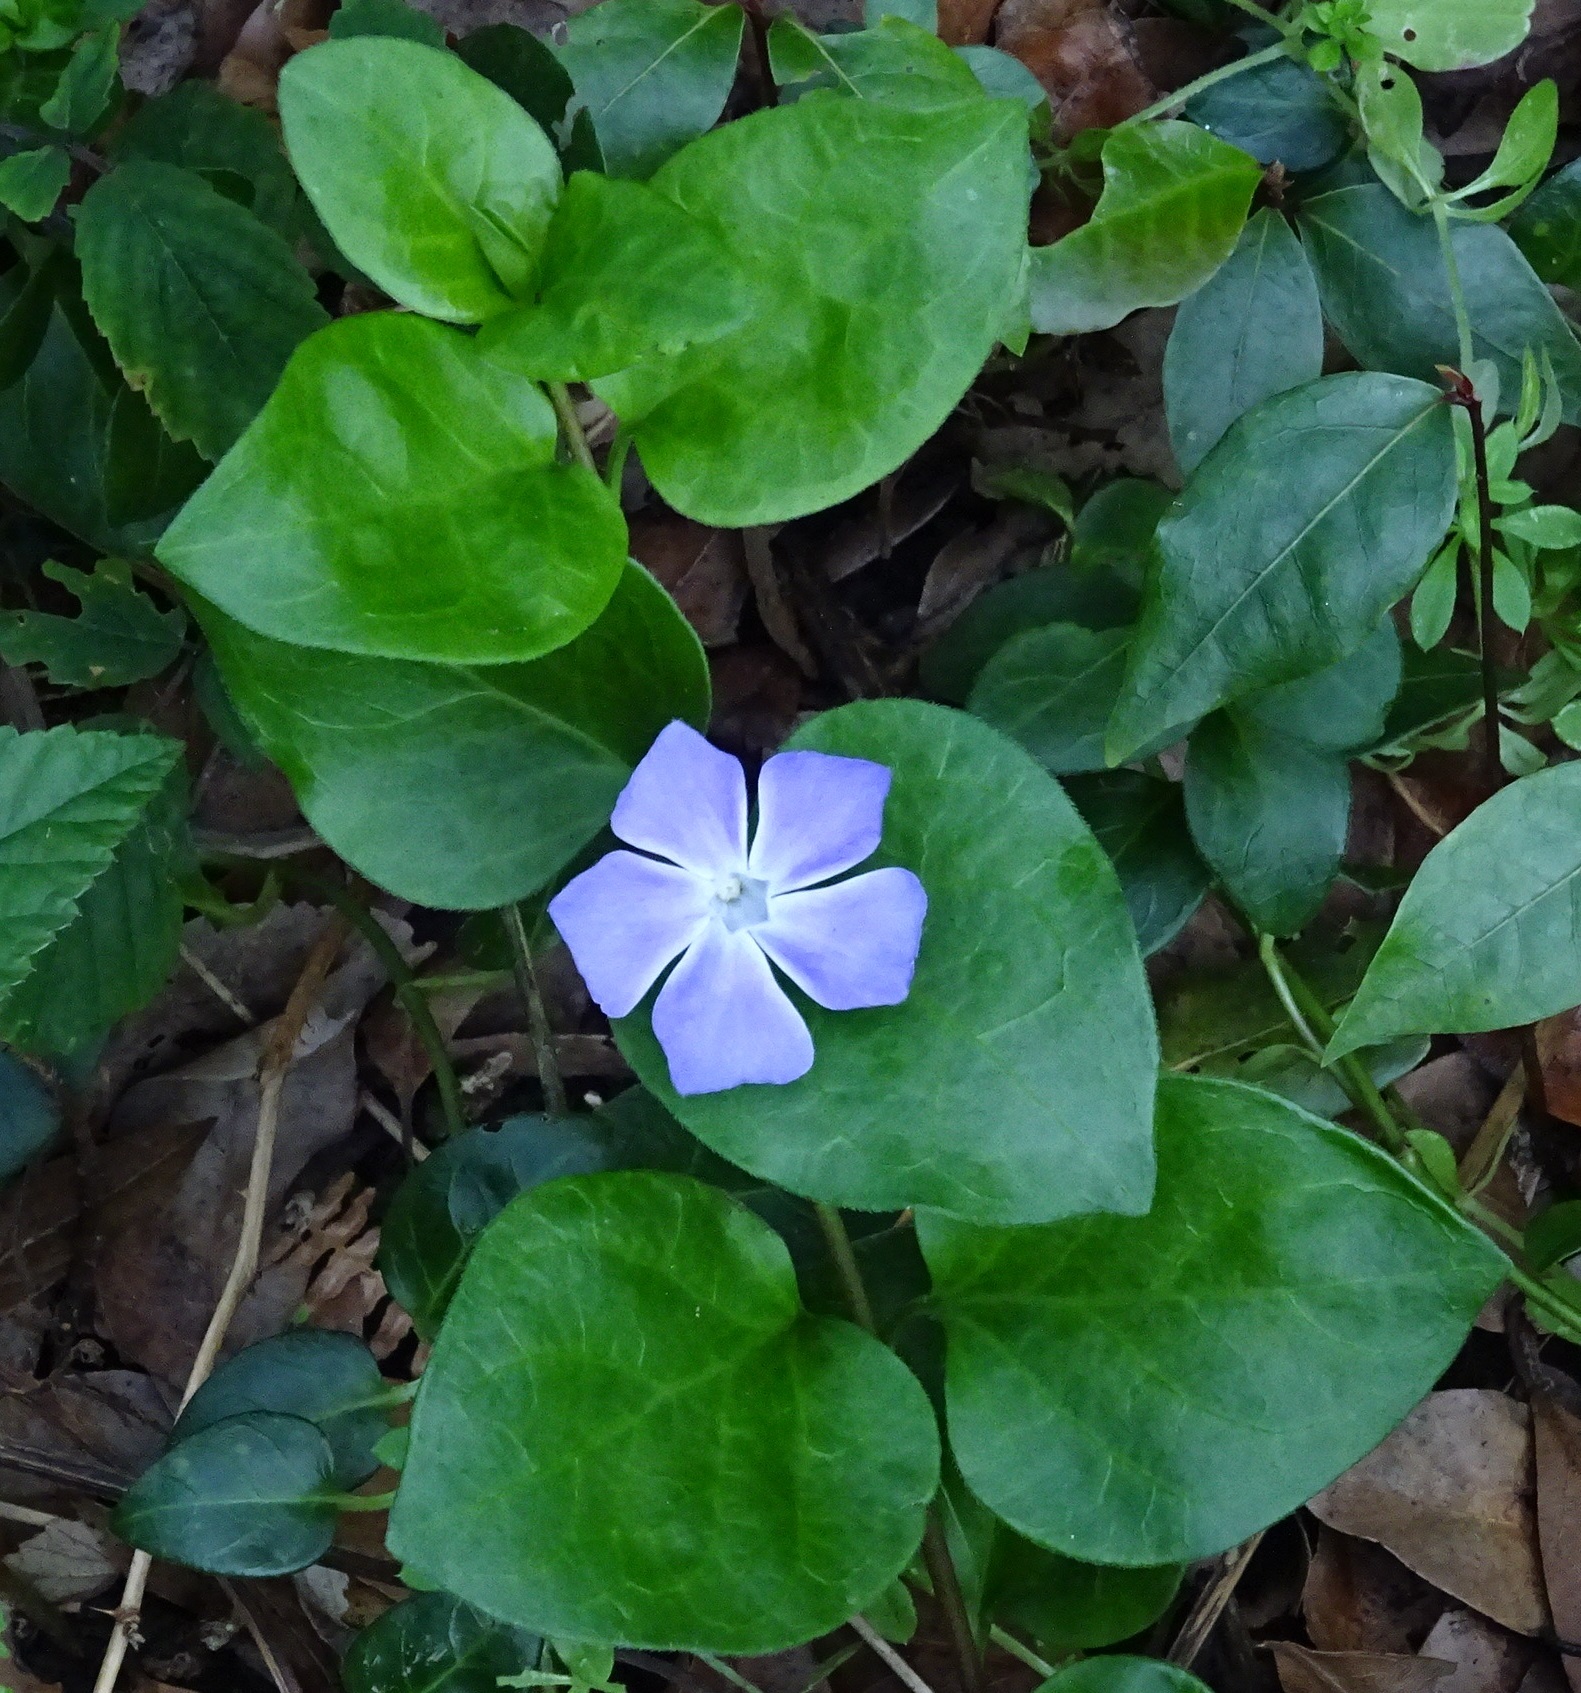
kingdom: Plantae
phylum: Tracheophyta
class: Magnoliopsida
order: Gentianales
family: Apocynaceae
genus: Vinca
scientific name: Vinca major
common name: Greater periwinkle
